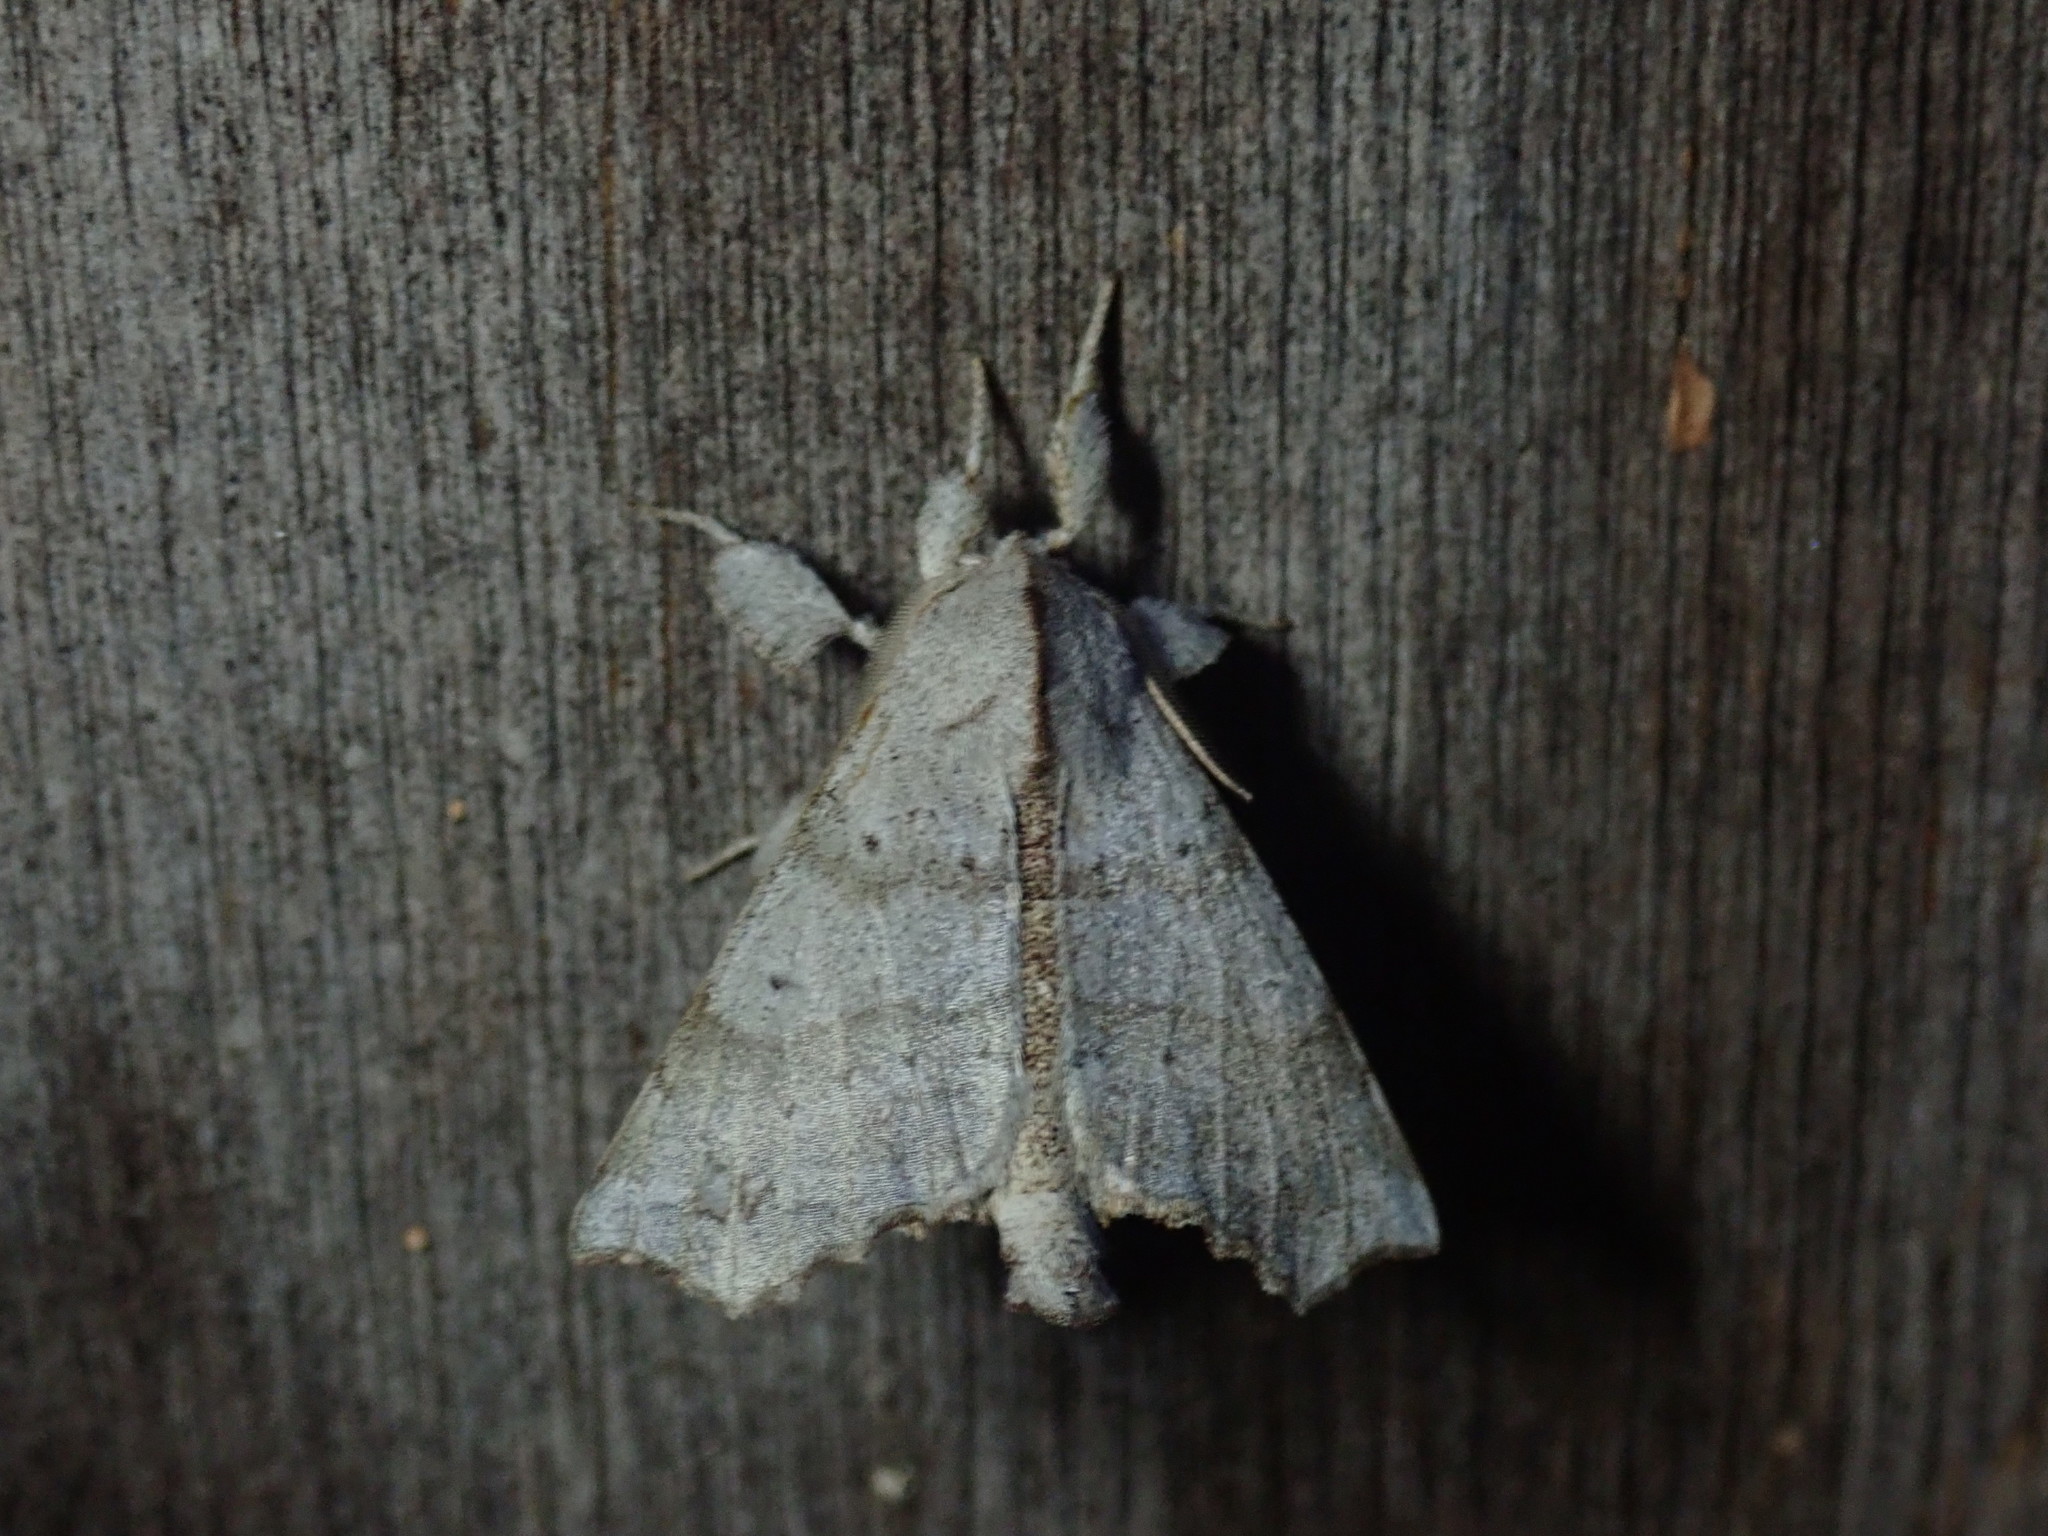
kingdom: Animalia
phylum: Arthropoda
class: Insecta
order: Lepidoptera
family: Apatelodidae
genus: Olceclostera
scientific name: Olceclostera angelica
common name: Angel moth
